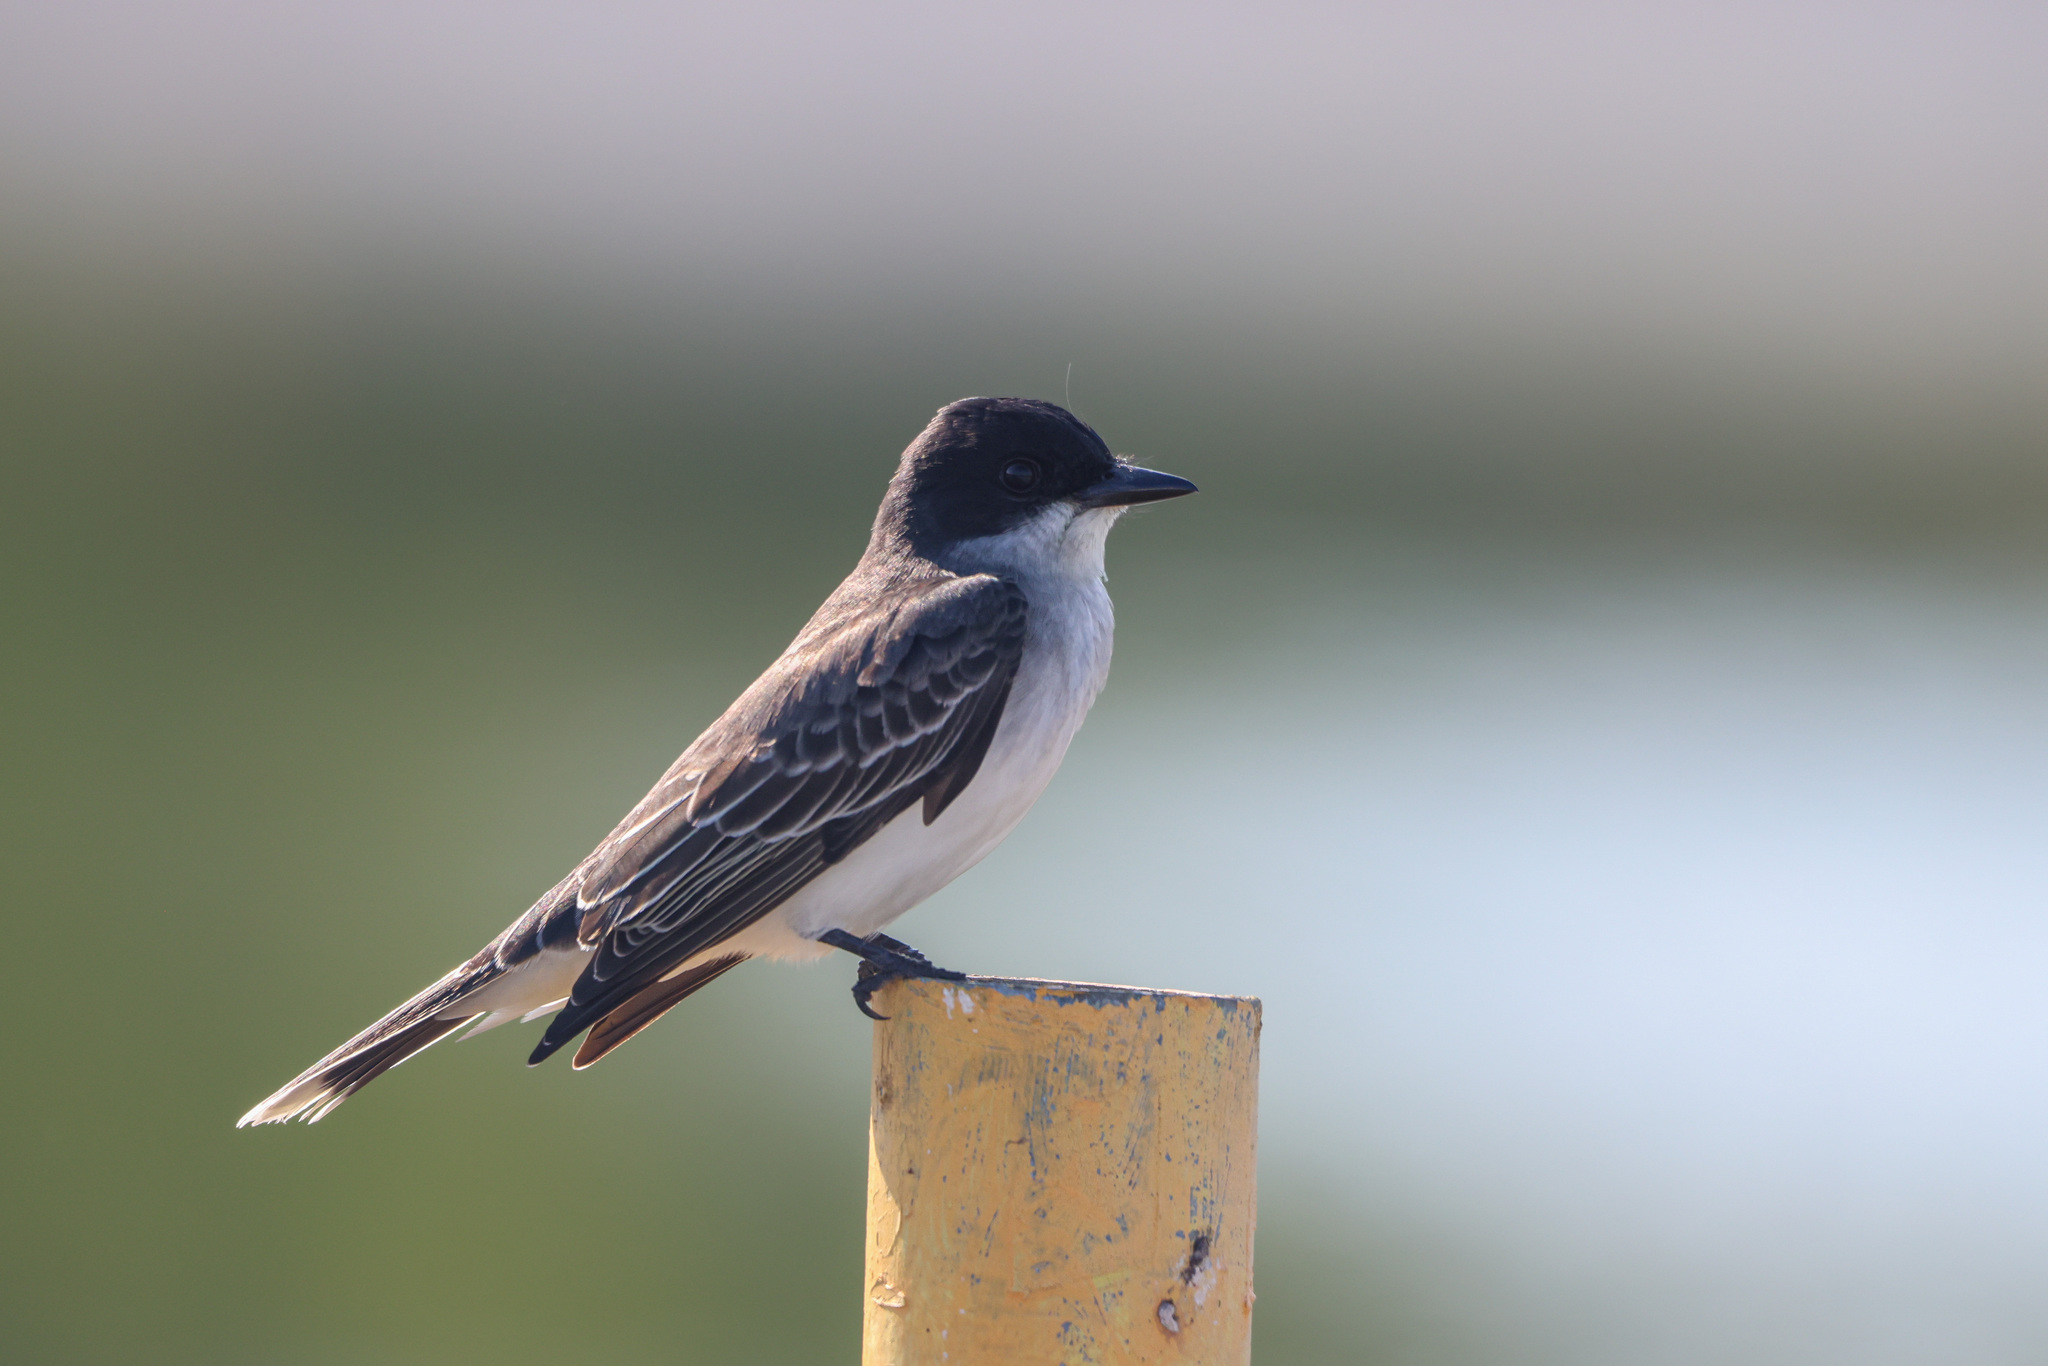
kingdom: Animalia
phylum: Chordata
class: Aves
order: Passeriformes
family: Tyrannidae
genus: Tyrannus
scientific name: Tyrannus tyrannus
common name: Eastern kingbird
